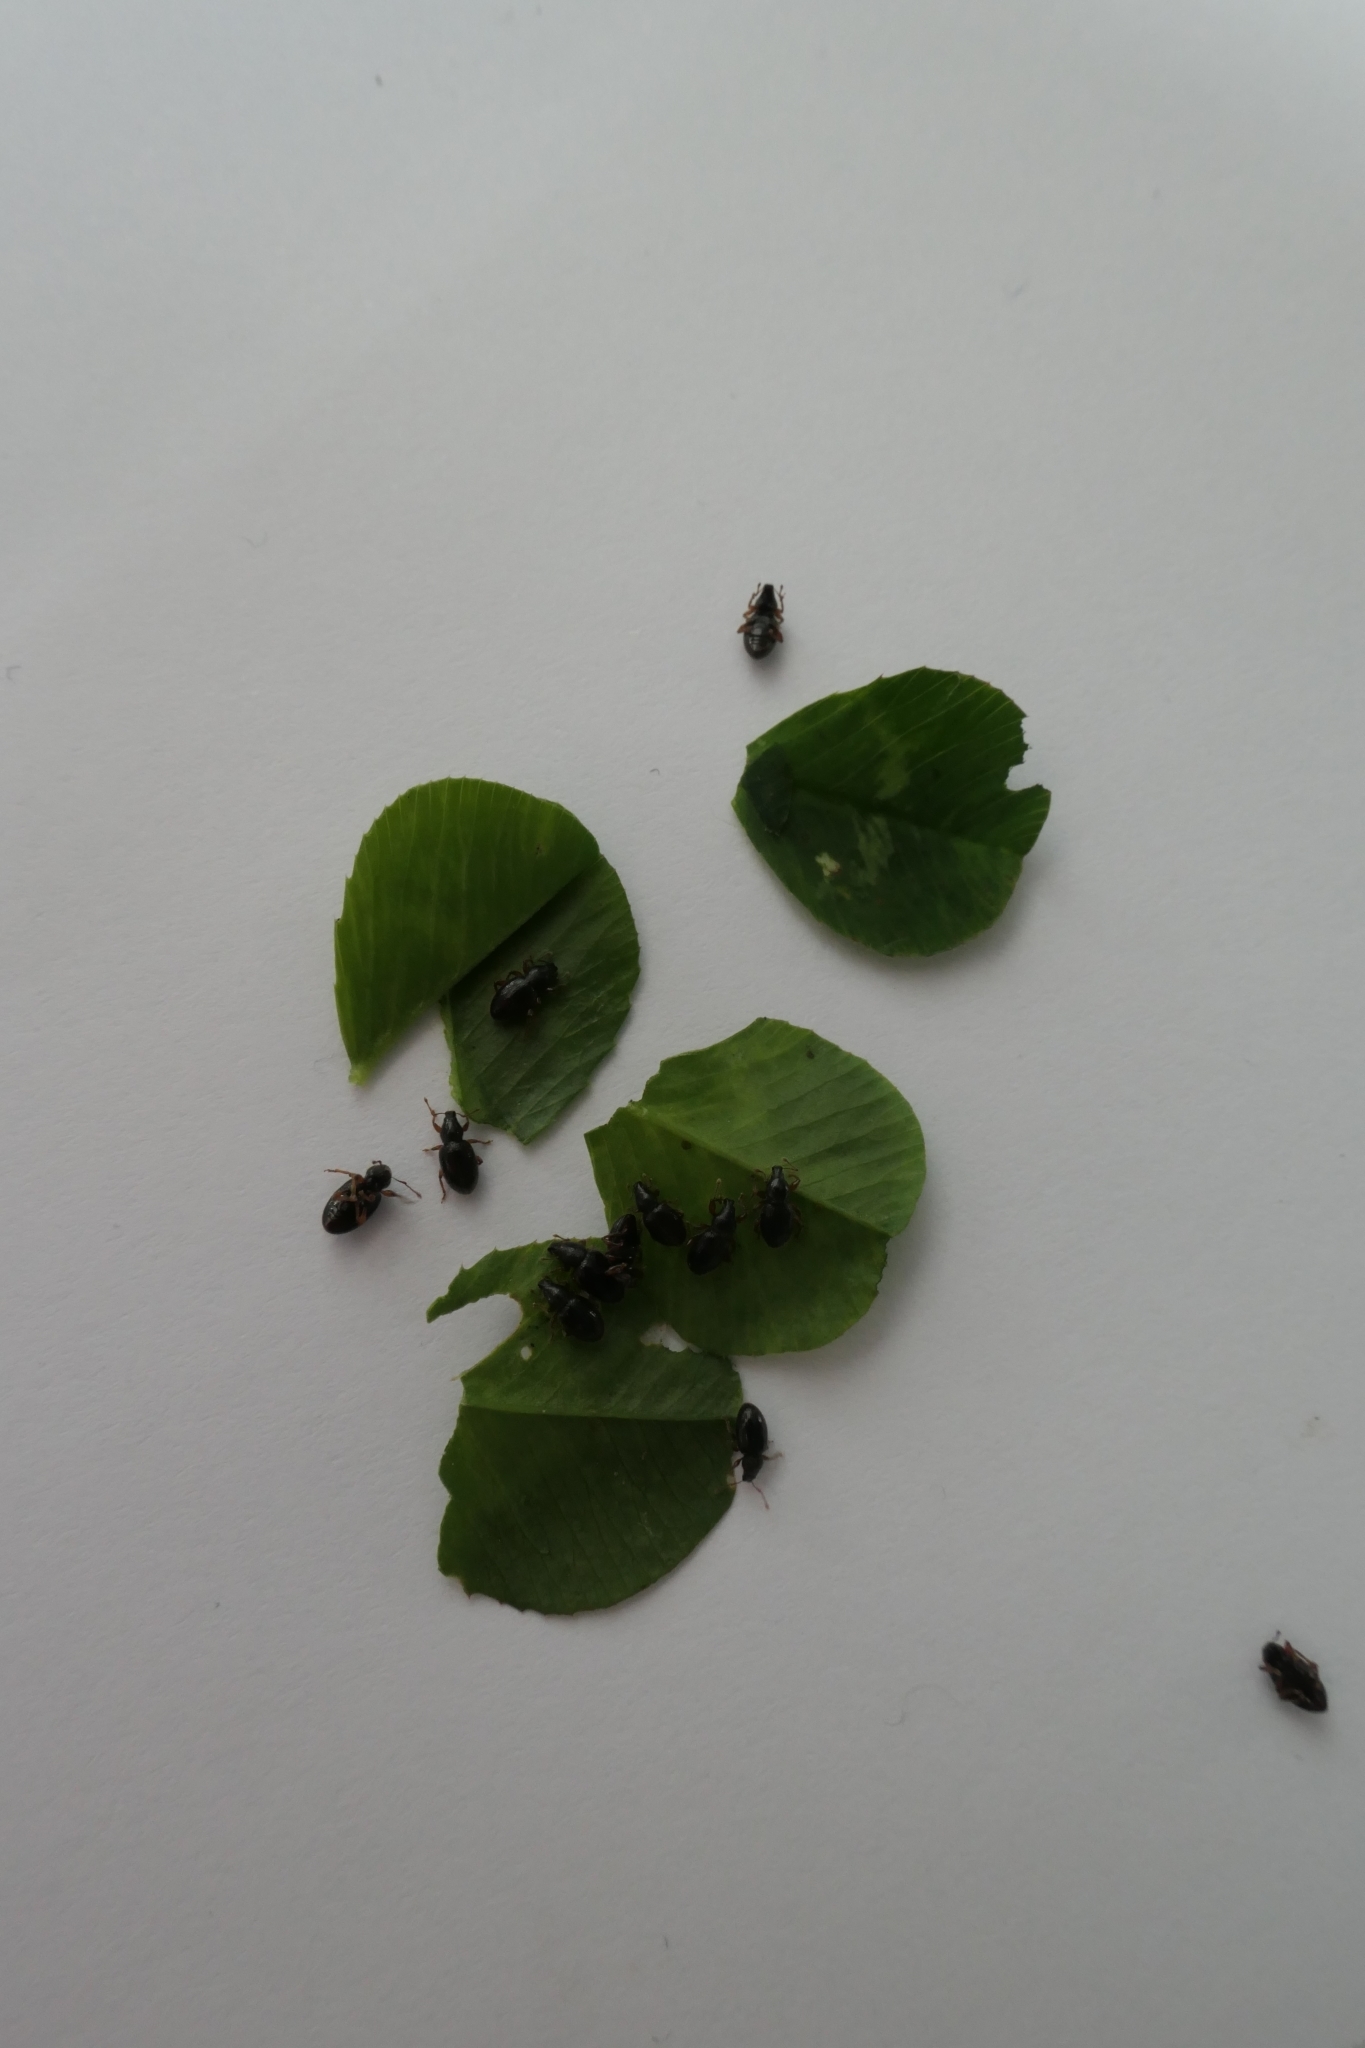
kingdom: Animalia
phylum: Arthropoda
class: Insecta
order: Coleoptera
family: Curculionidae
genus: Exomias
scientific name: Exomias pellucidus
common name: Hairy spider weevil
